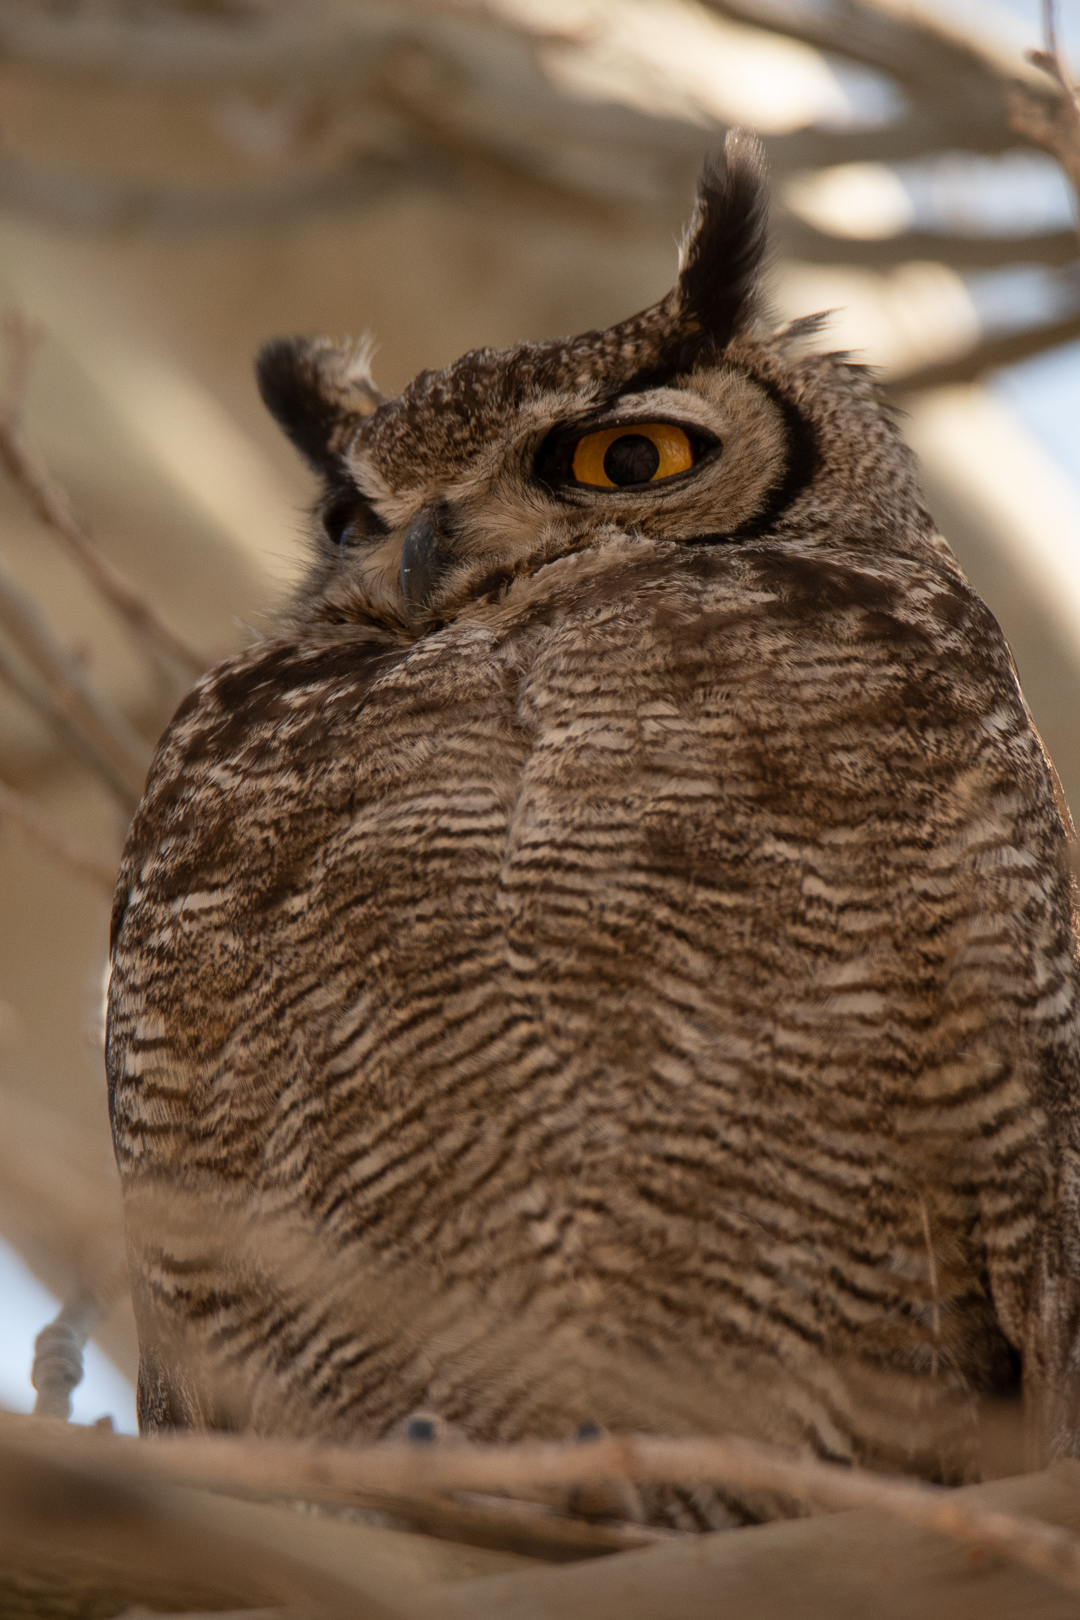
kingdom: Animalia
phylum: Chordata
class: Aves
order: Strigiformes
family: Strigidae
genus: Bubo
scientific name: Bubo magellanicus
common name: Lesser horned owl
